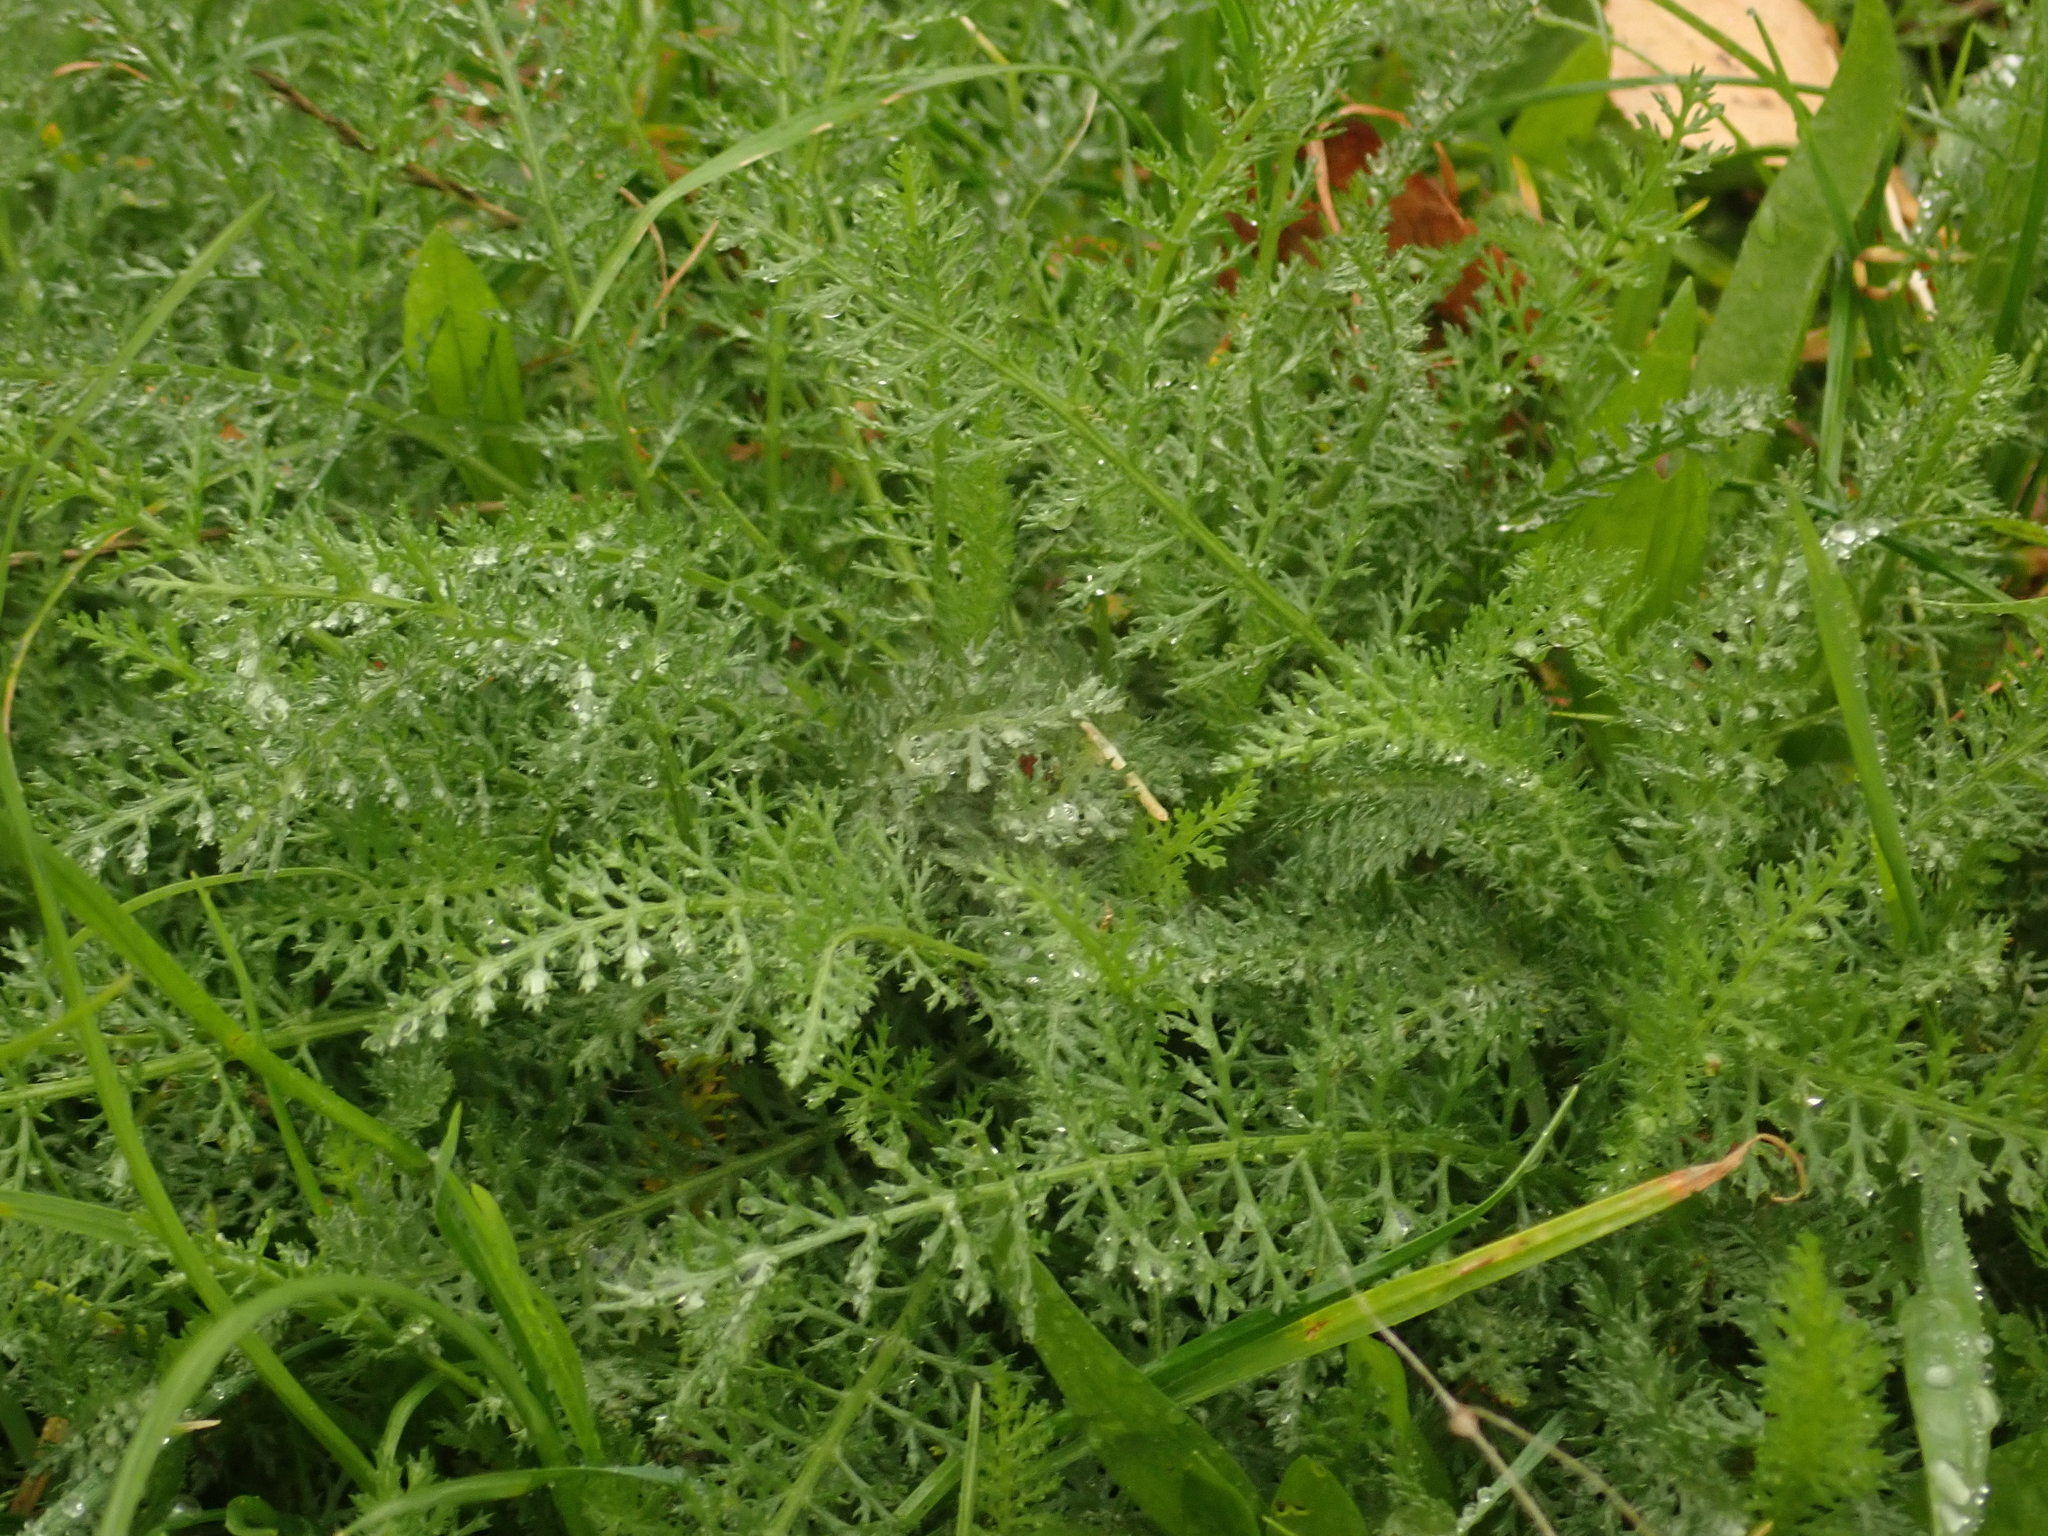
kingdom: Plantae
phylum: Tracheophyta
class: Magnoliopsida
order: Asterales
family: Asteraceae
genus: Achillea
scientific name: Achillea millefolium
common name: Yarrow
